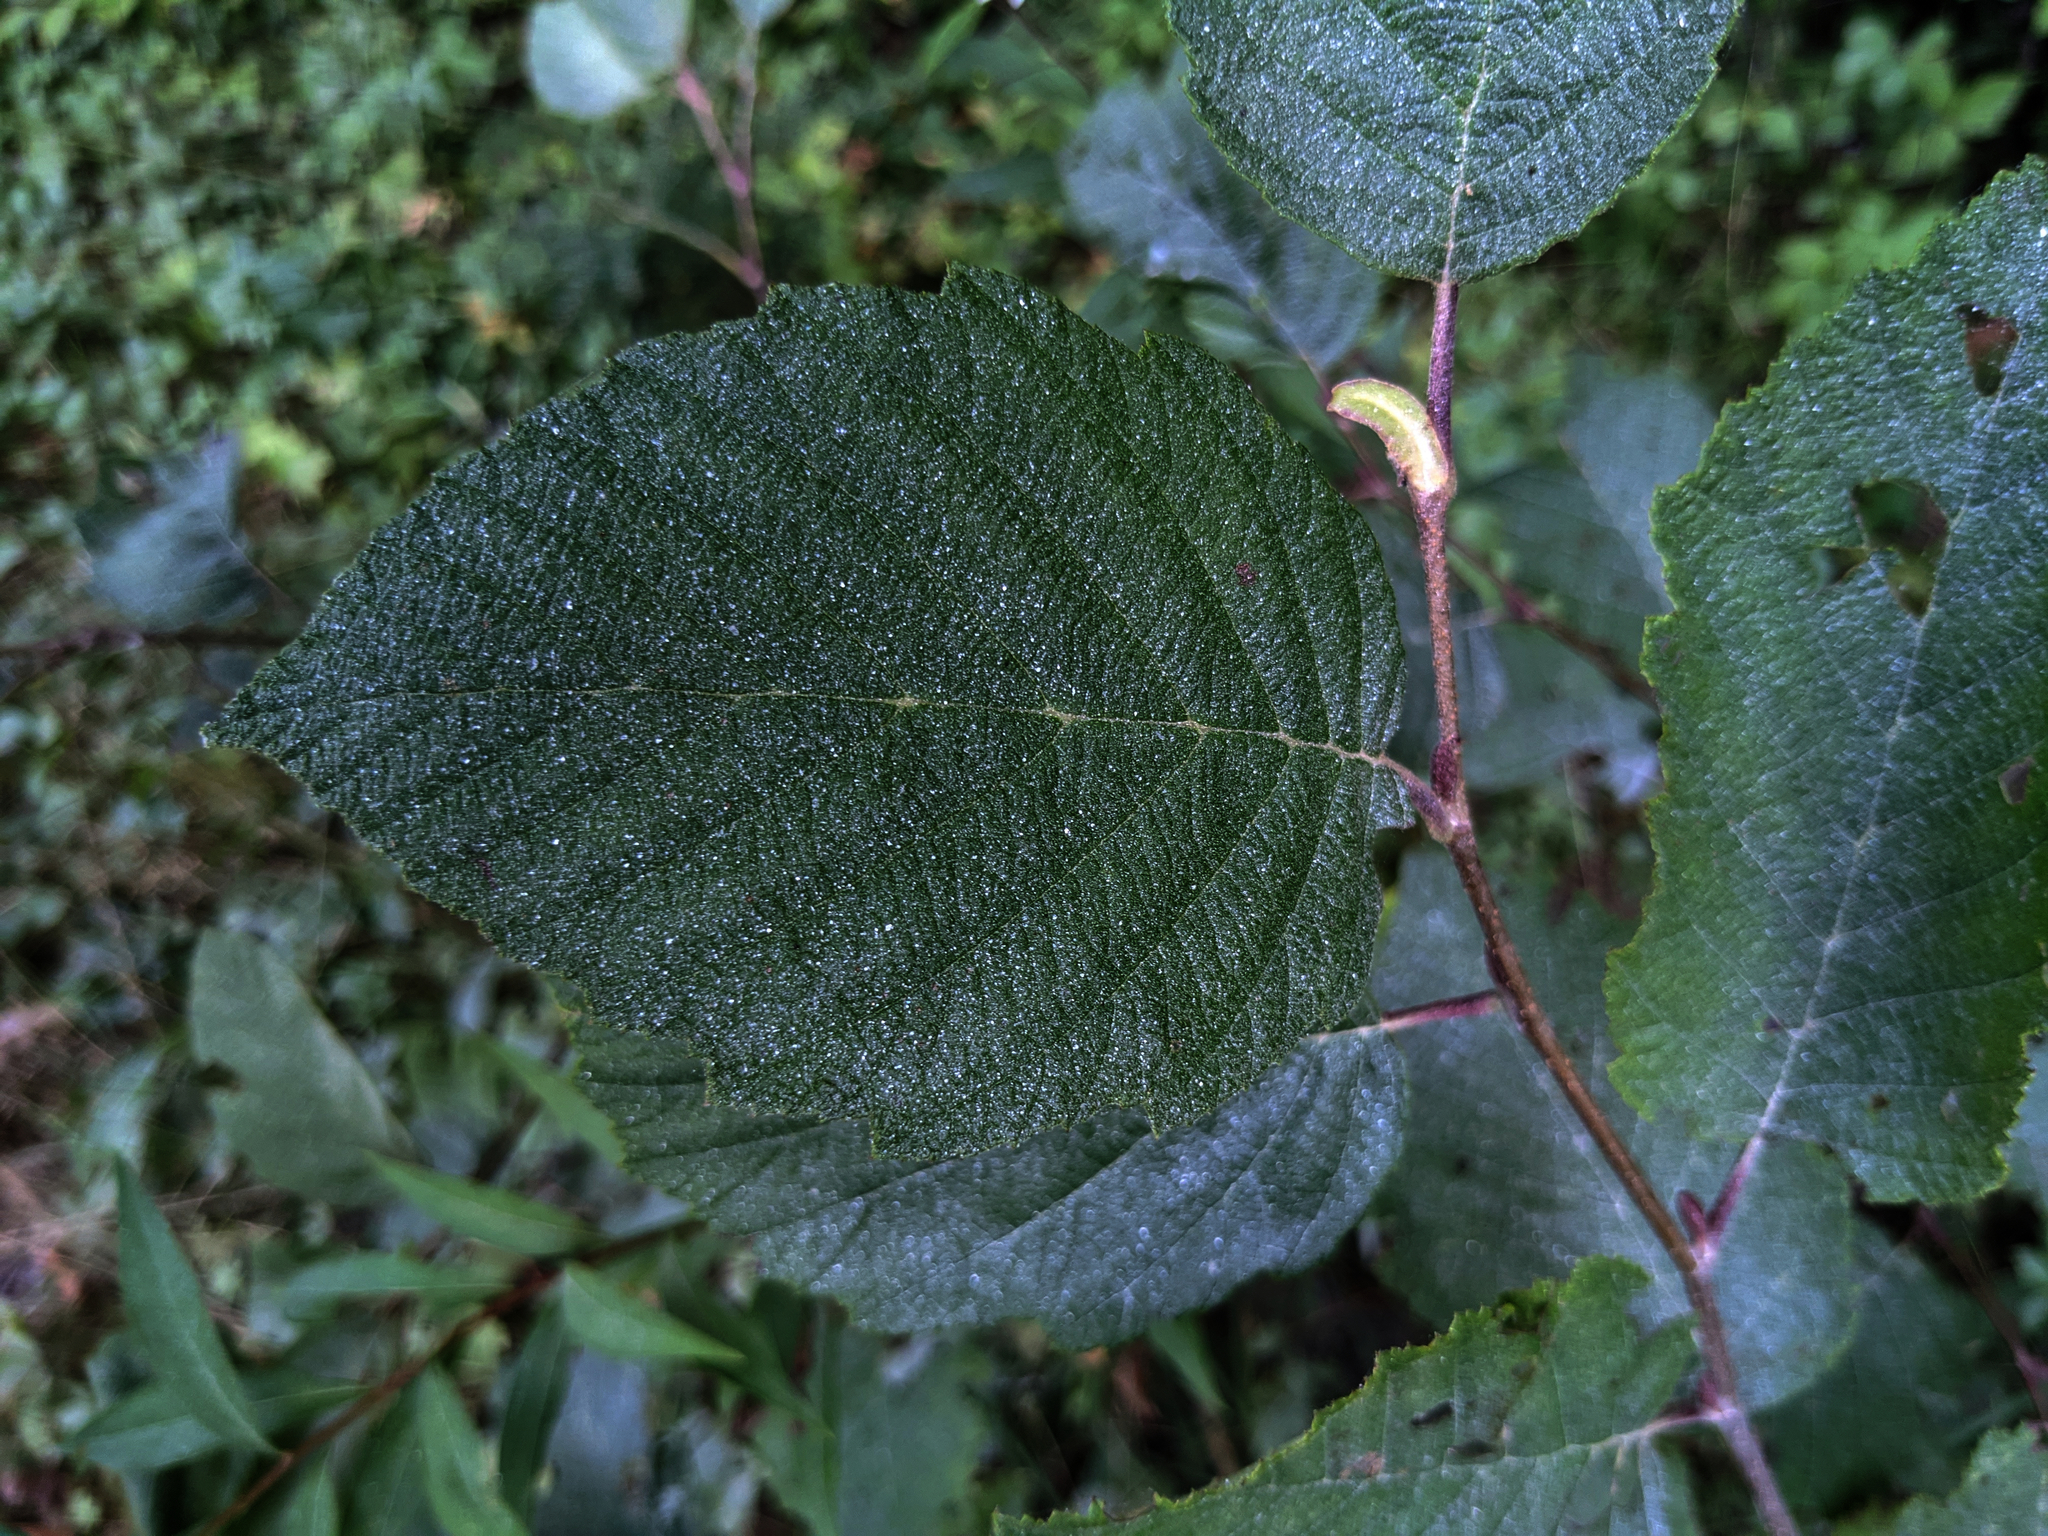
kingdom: Plantae
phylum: Tracheophyta
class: Magnoliopsida
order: Fagales
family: Betulaceae
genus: Alnus
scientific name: Alnus incana
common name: Grey alder
